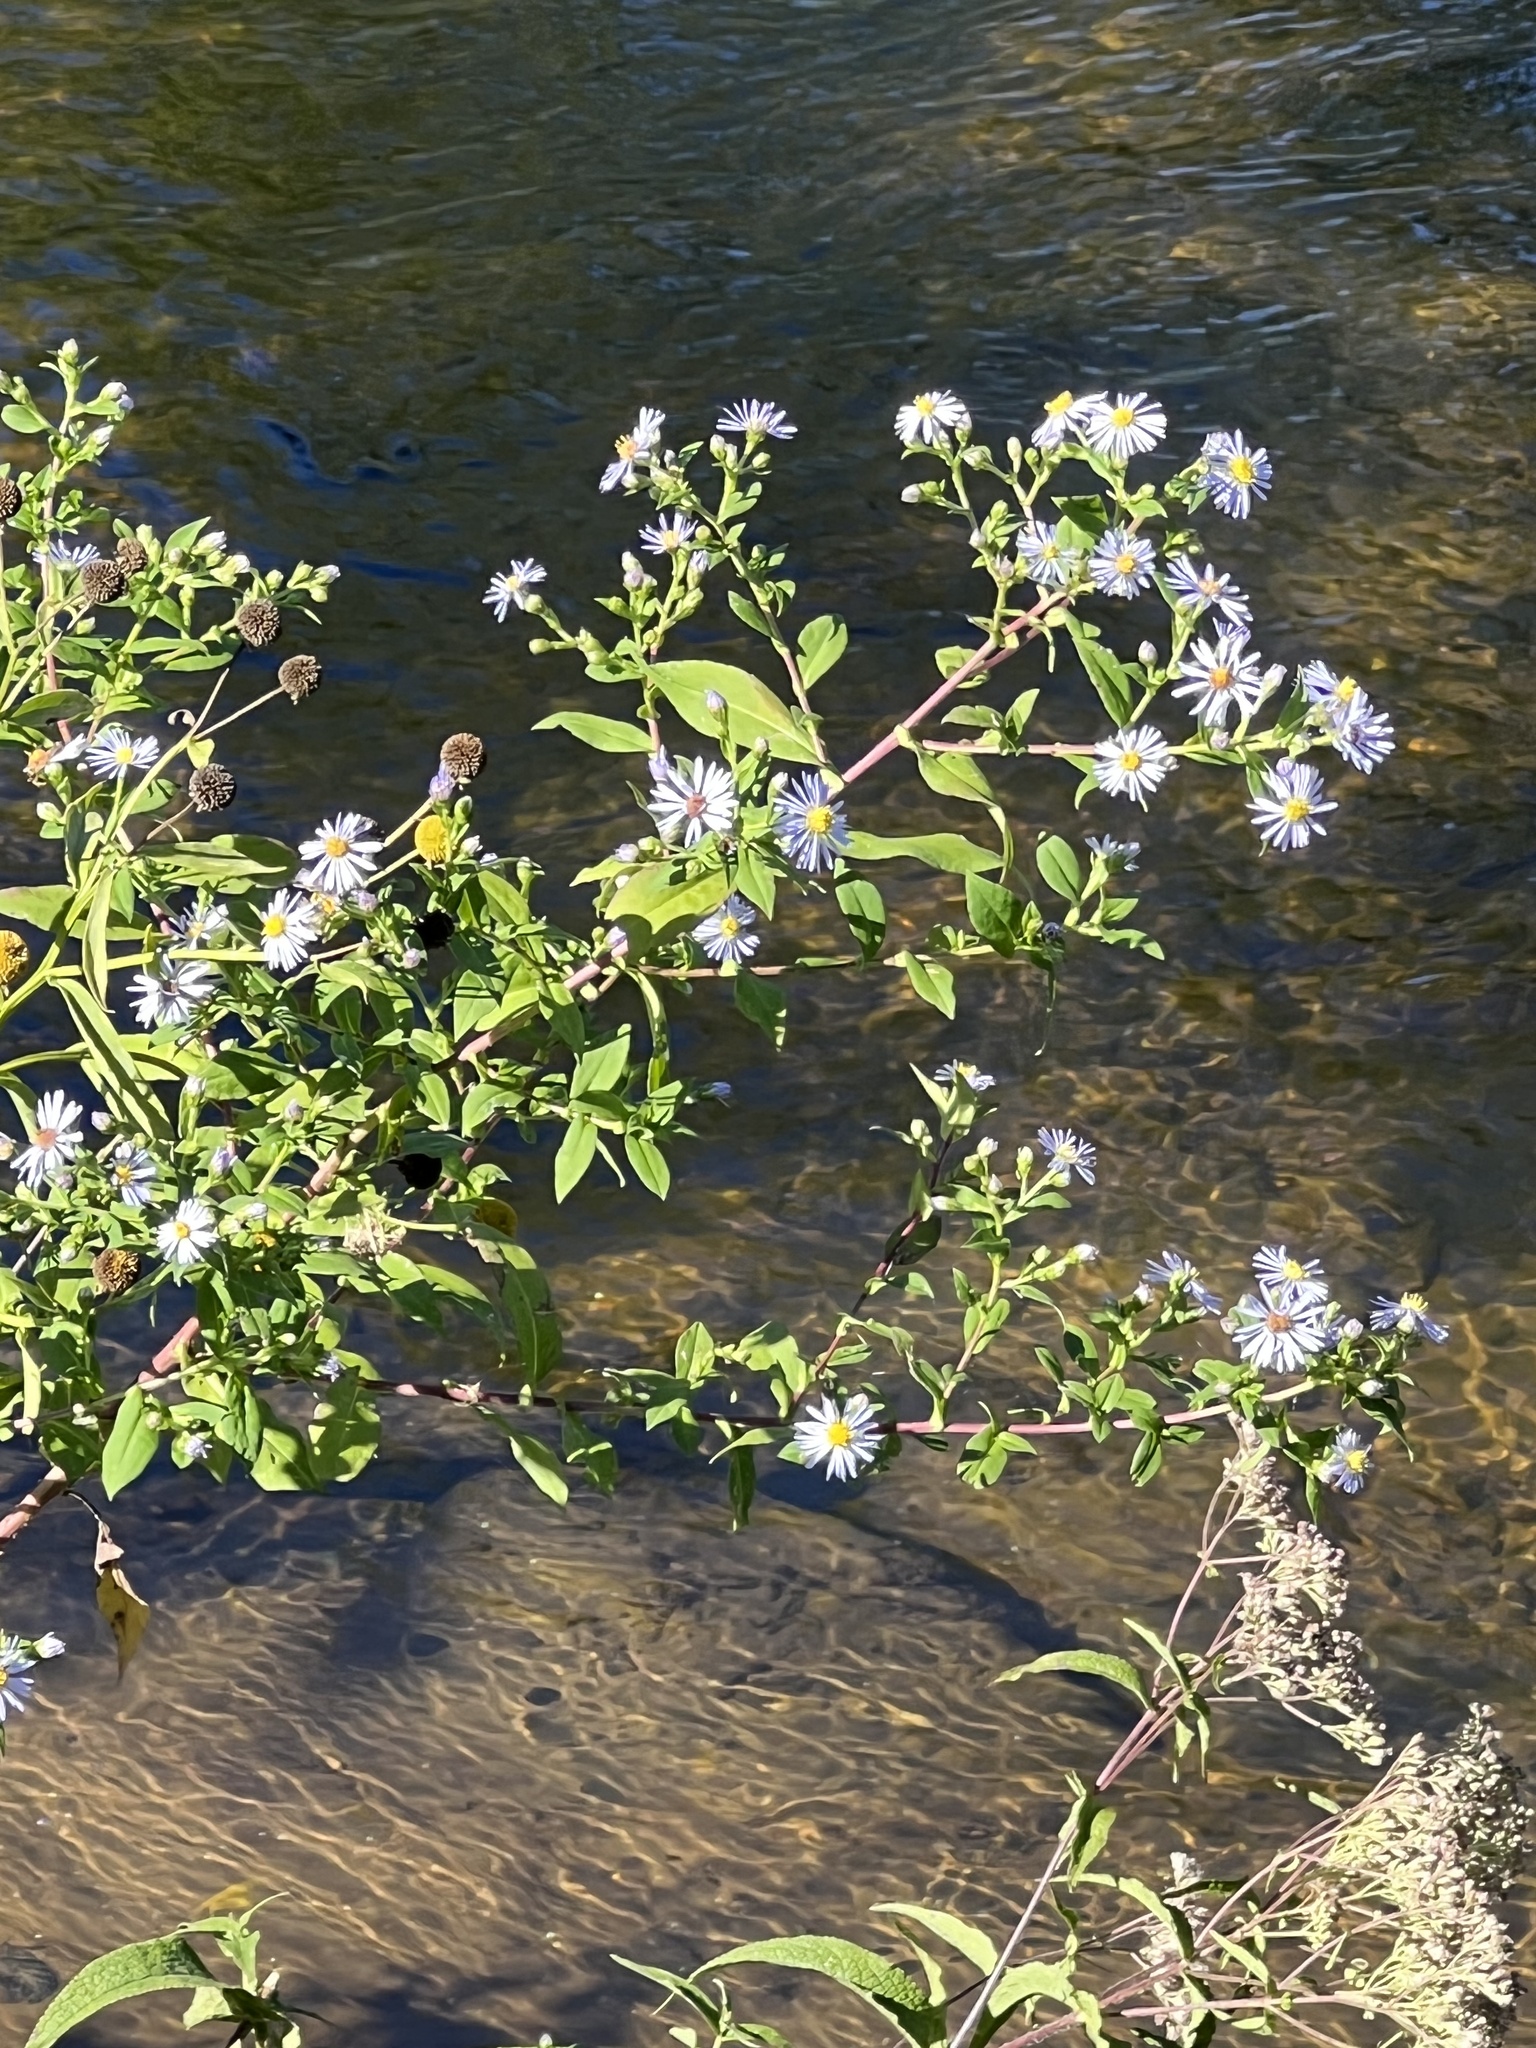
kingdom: Plantae
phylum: Tracheophyta
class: Magnoliopsida
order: Asterales
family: Asteraceae
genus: Symphyotrichum
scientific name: Symphyotrichum puniceum
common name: Bog aster
